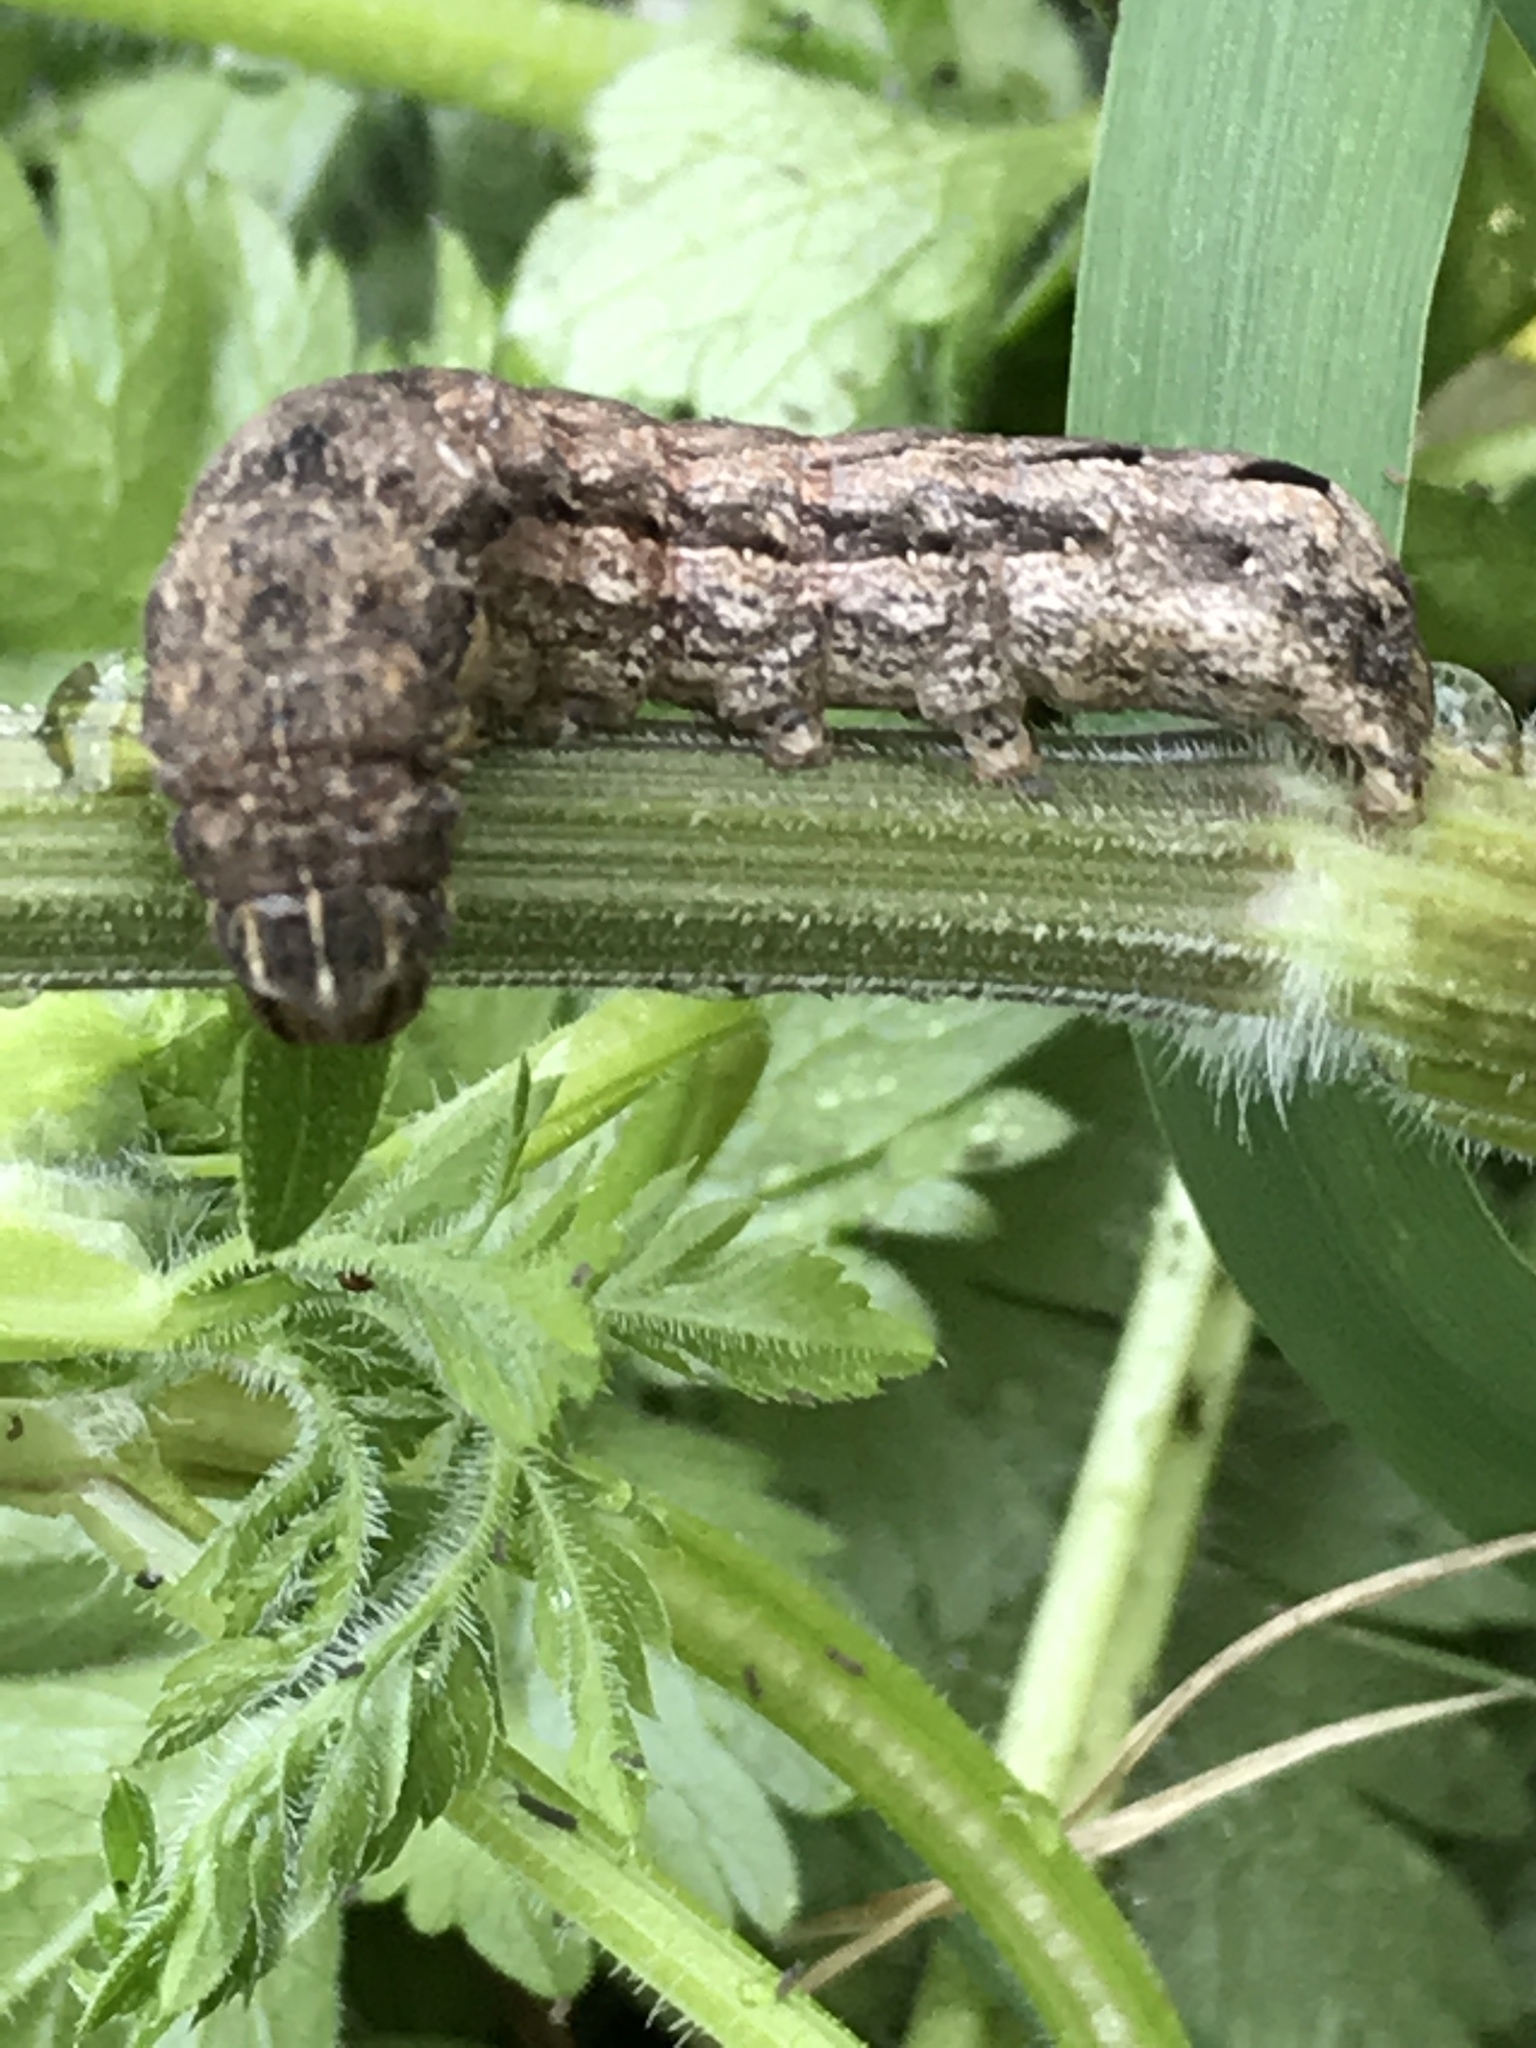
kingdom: Animalia
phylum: Arthropoda
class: Insecta
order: Lepidoptera
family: Noctuidae
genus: Noctua
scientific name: Noctua comes
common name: Lesser yellow underwing
